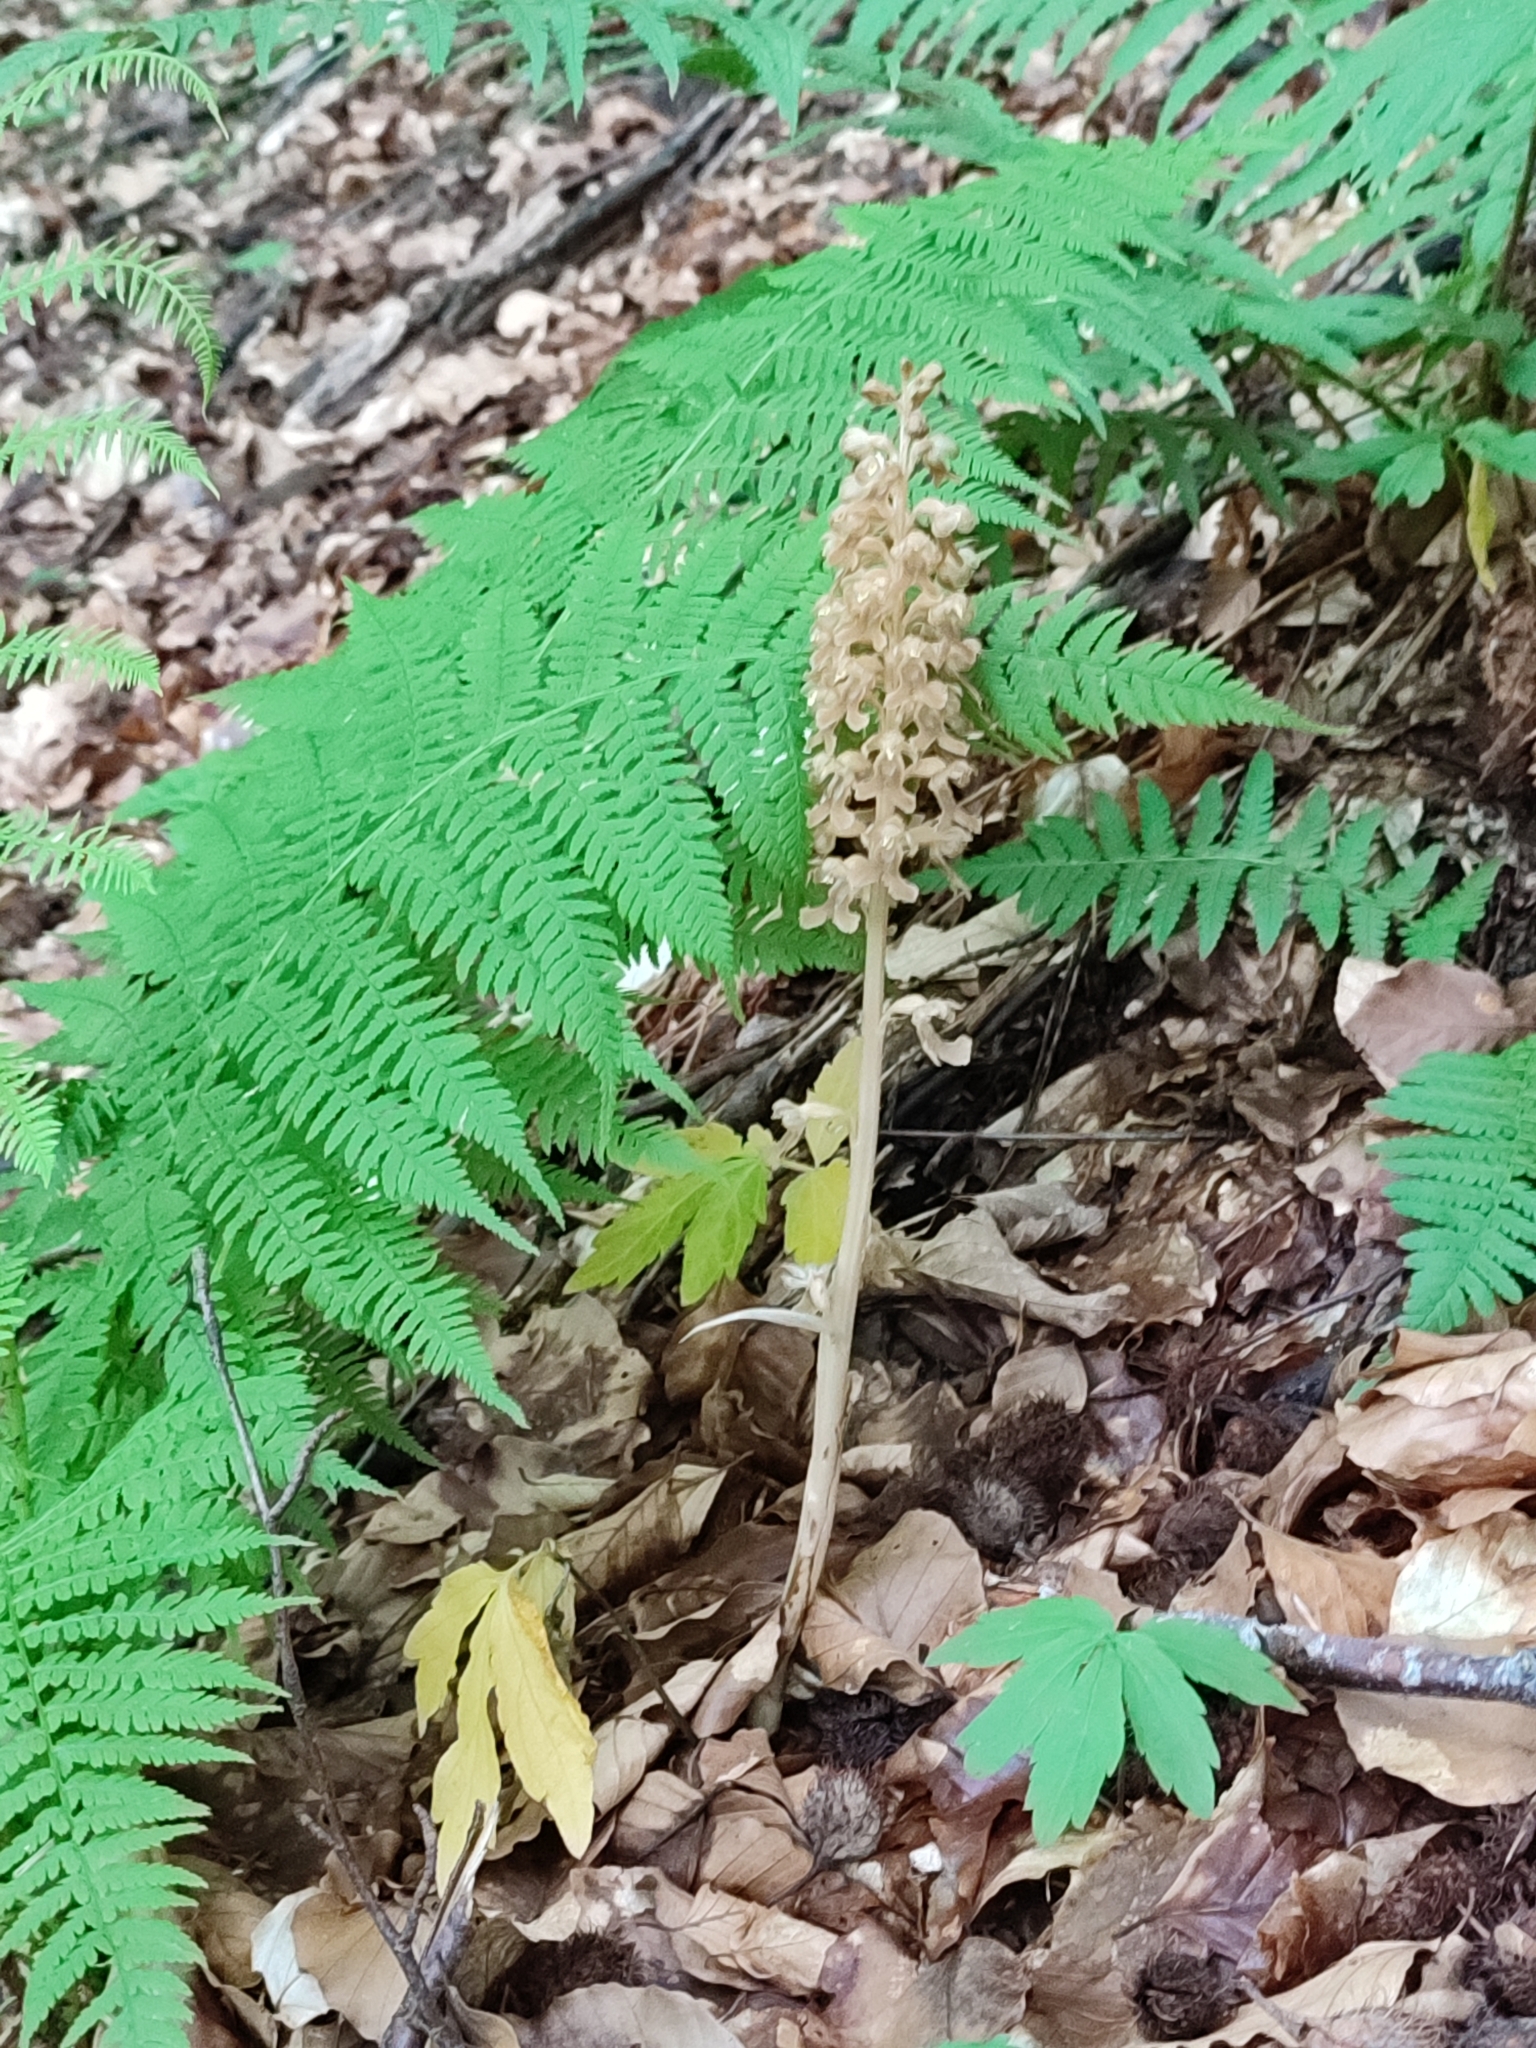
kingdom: Plantae
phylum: Tracheophyta
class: Liliopsida
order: Asparagales
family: Orchidaceae
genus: Neottia
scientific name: Neottia nidus-avis
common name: Bird's-nest orchid
